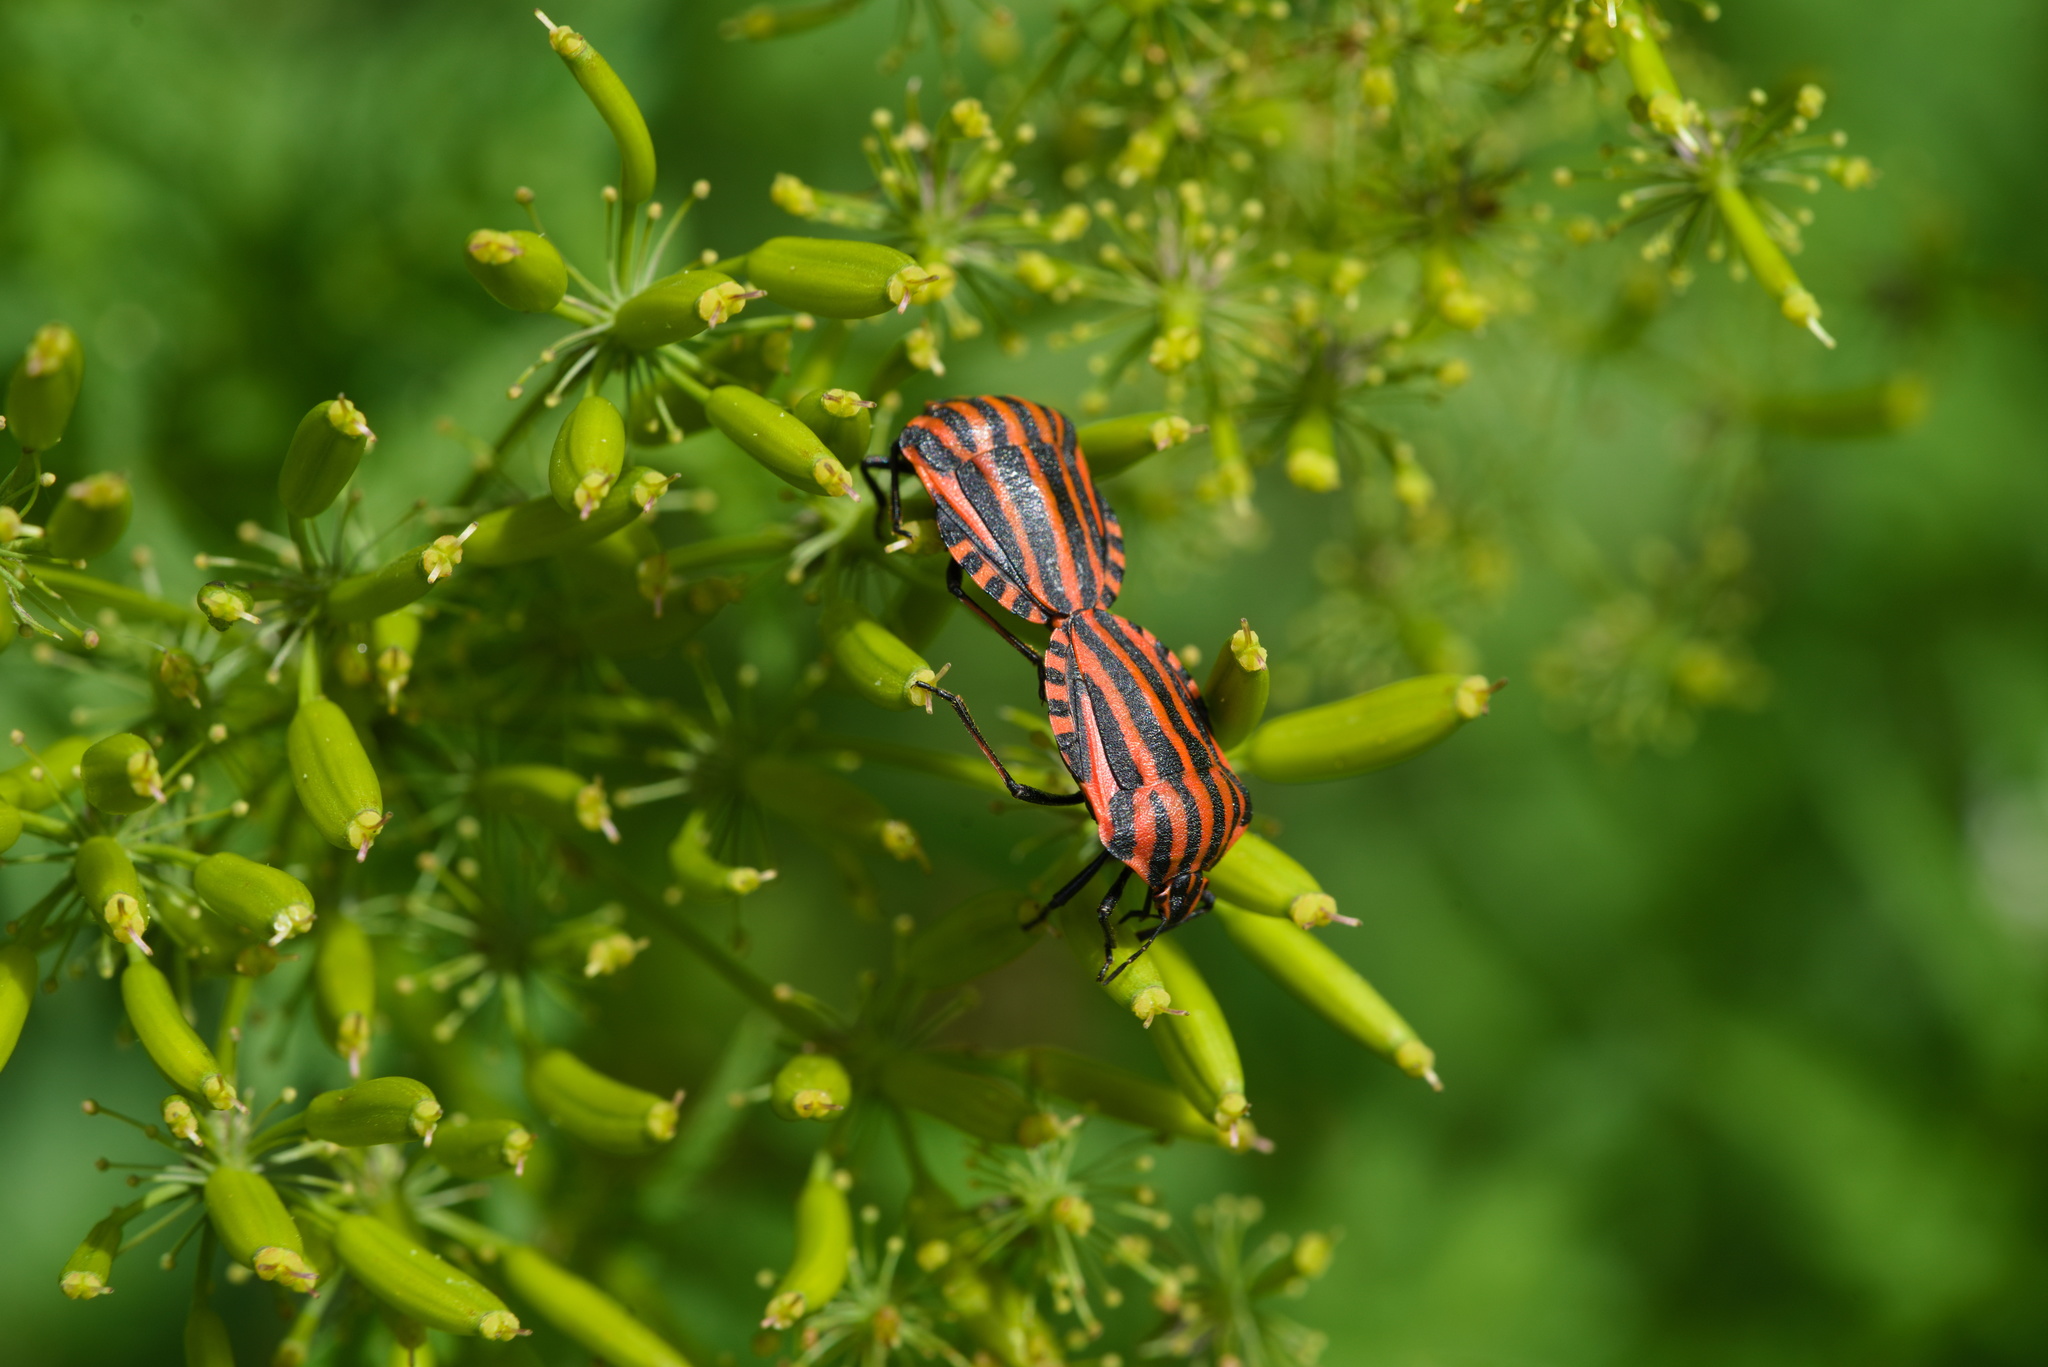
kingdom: Animalia
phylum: Arthropoda
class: Insecta
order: Hemiptera
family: Pentatomidae
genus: Graphosoma
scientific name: Graphosoma italicum
